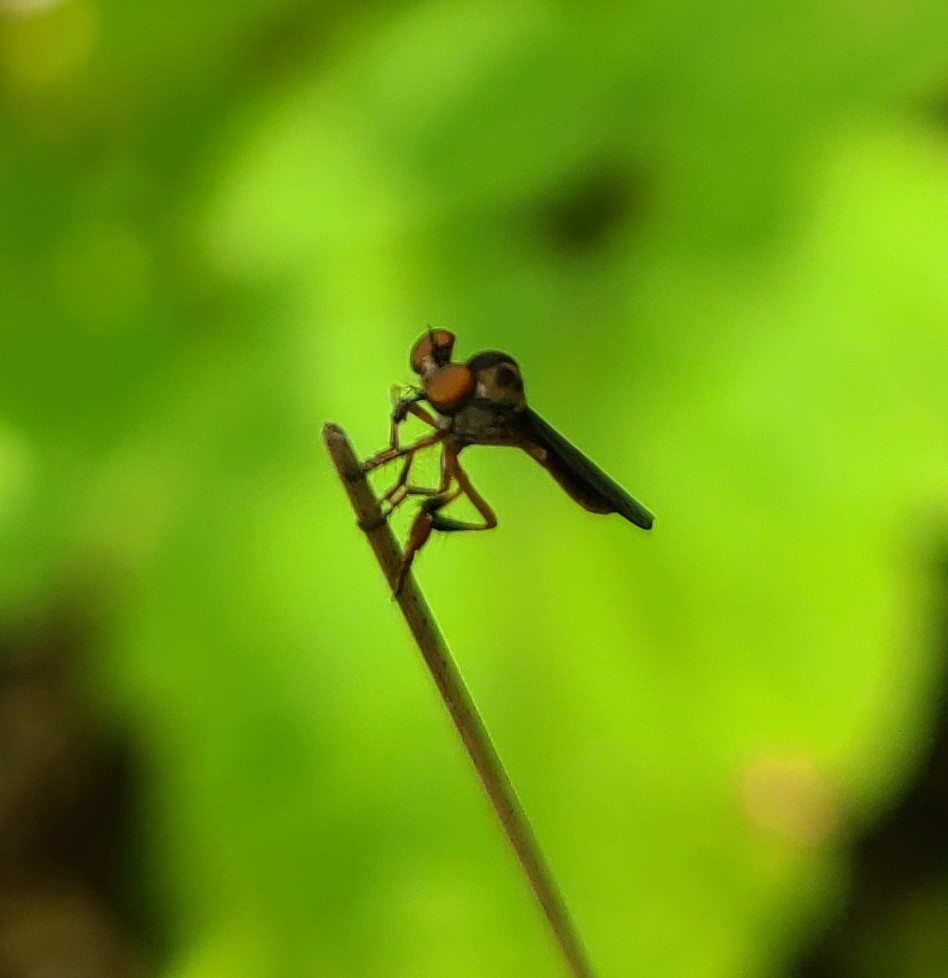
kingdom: Animalia
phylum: Arthropoda
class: Insecta
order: Diptera
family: Asilidae
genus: Holcocephala
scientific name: Holcocephala
